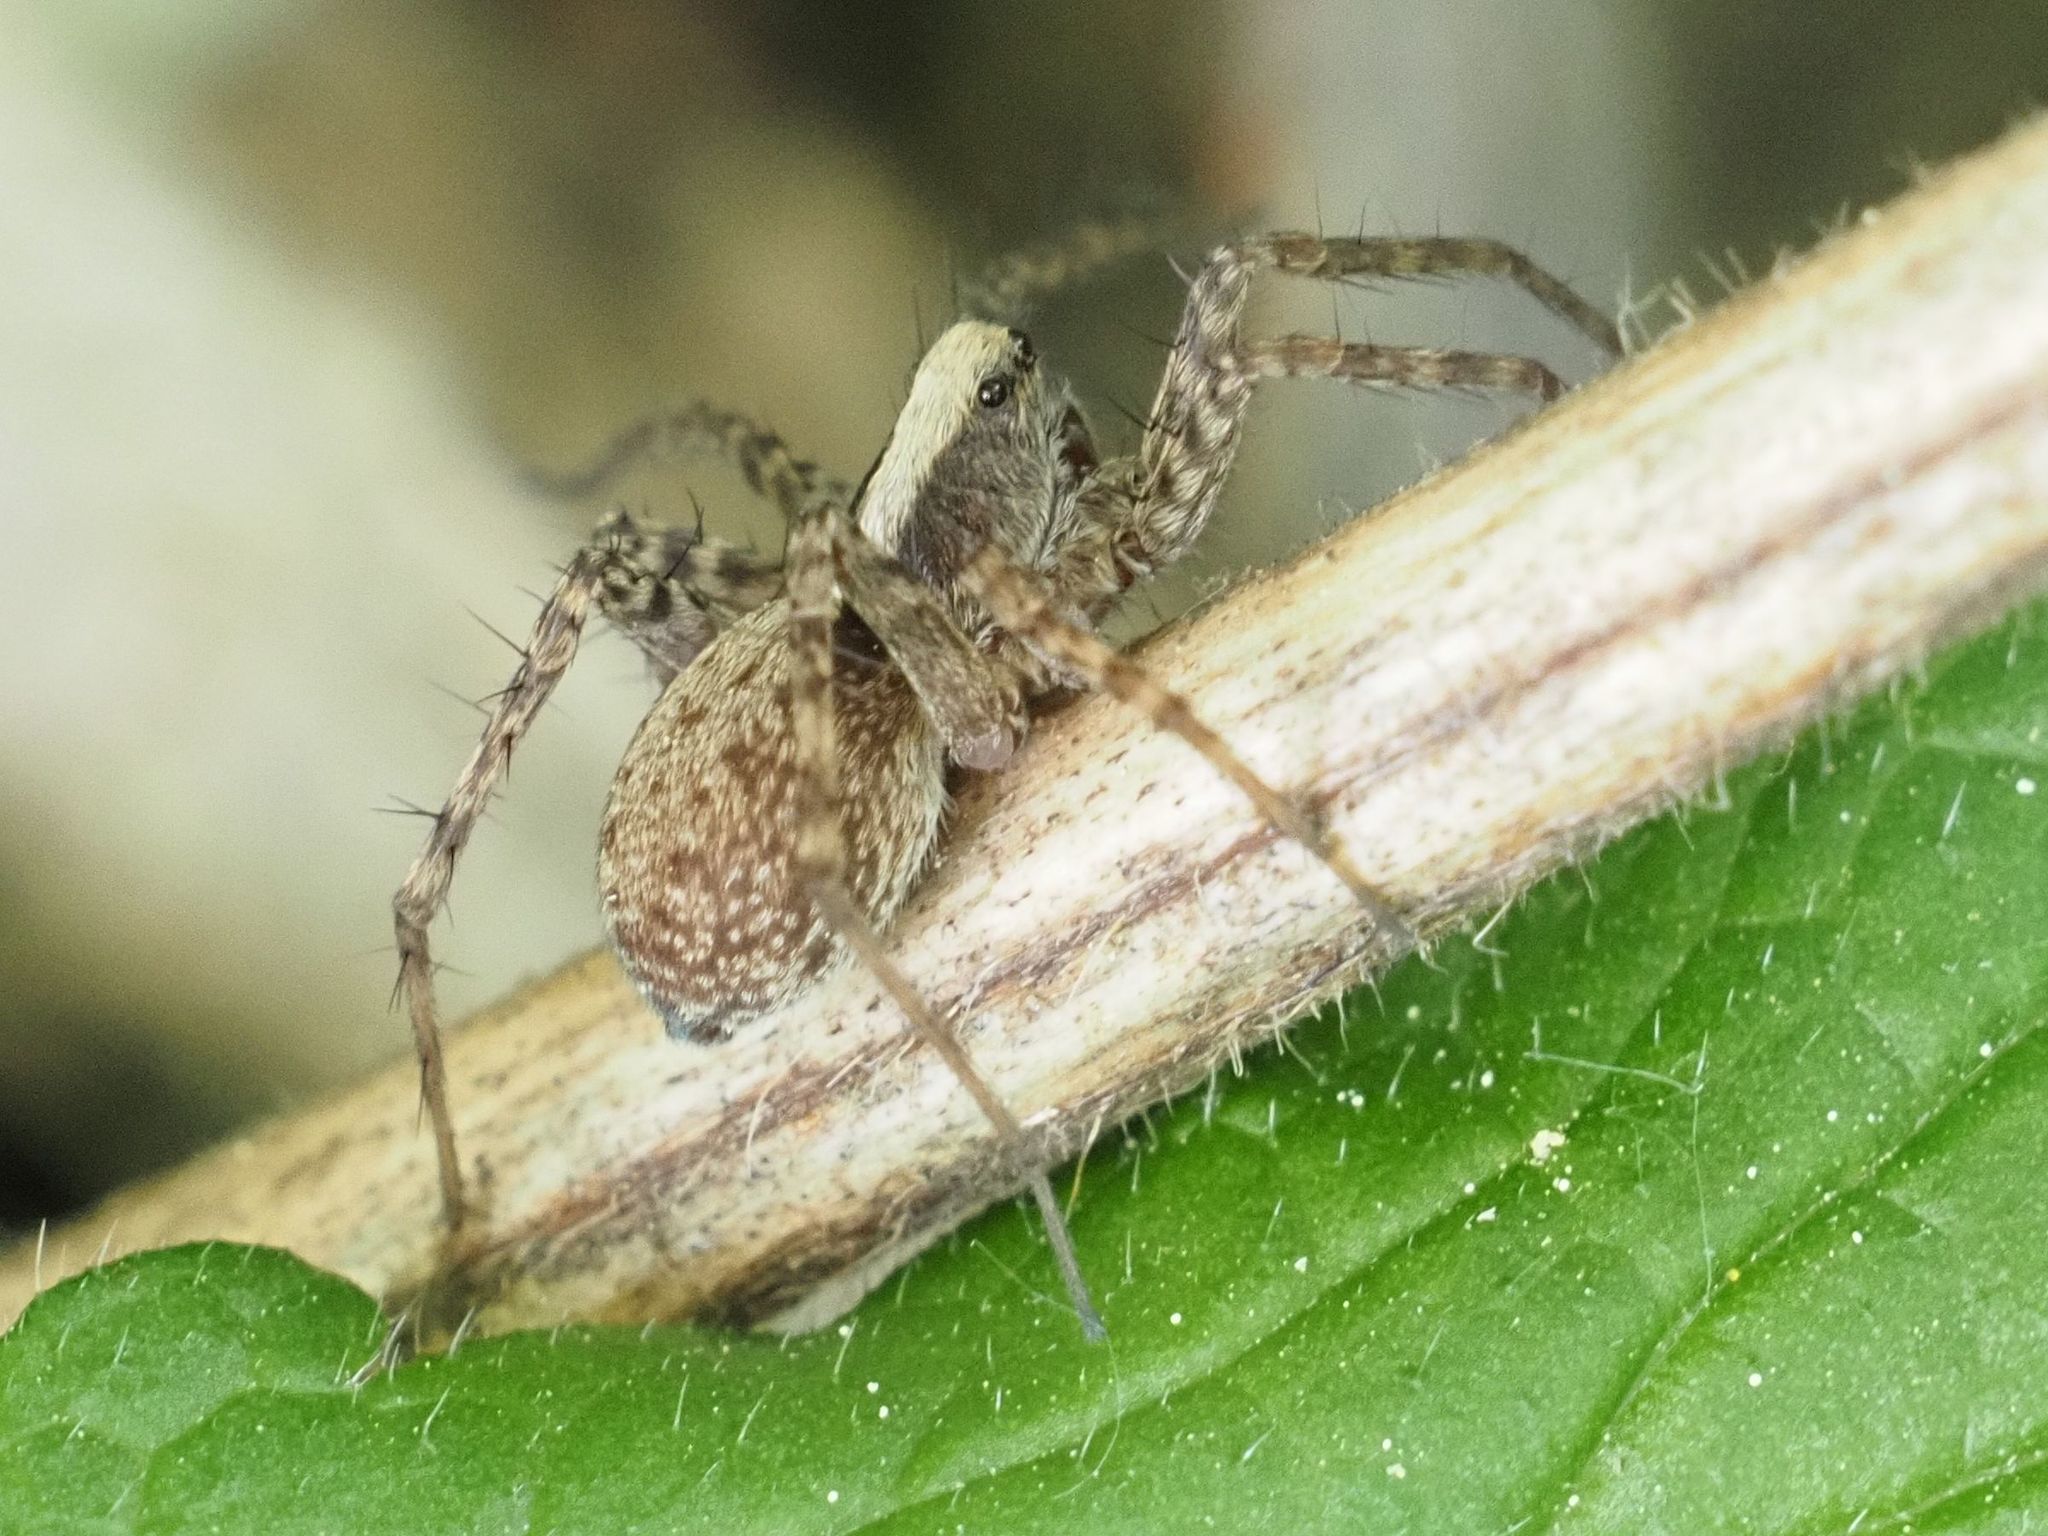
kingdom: Animalia
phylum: Arthropoda
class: Arachnida
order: Araneae
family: Lycosidae
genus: Pardosa
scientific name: Pardosa
